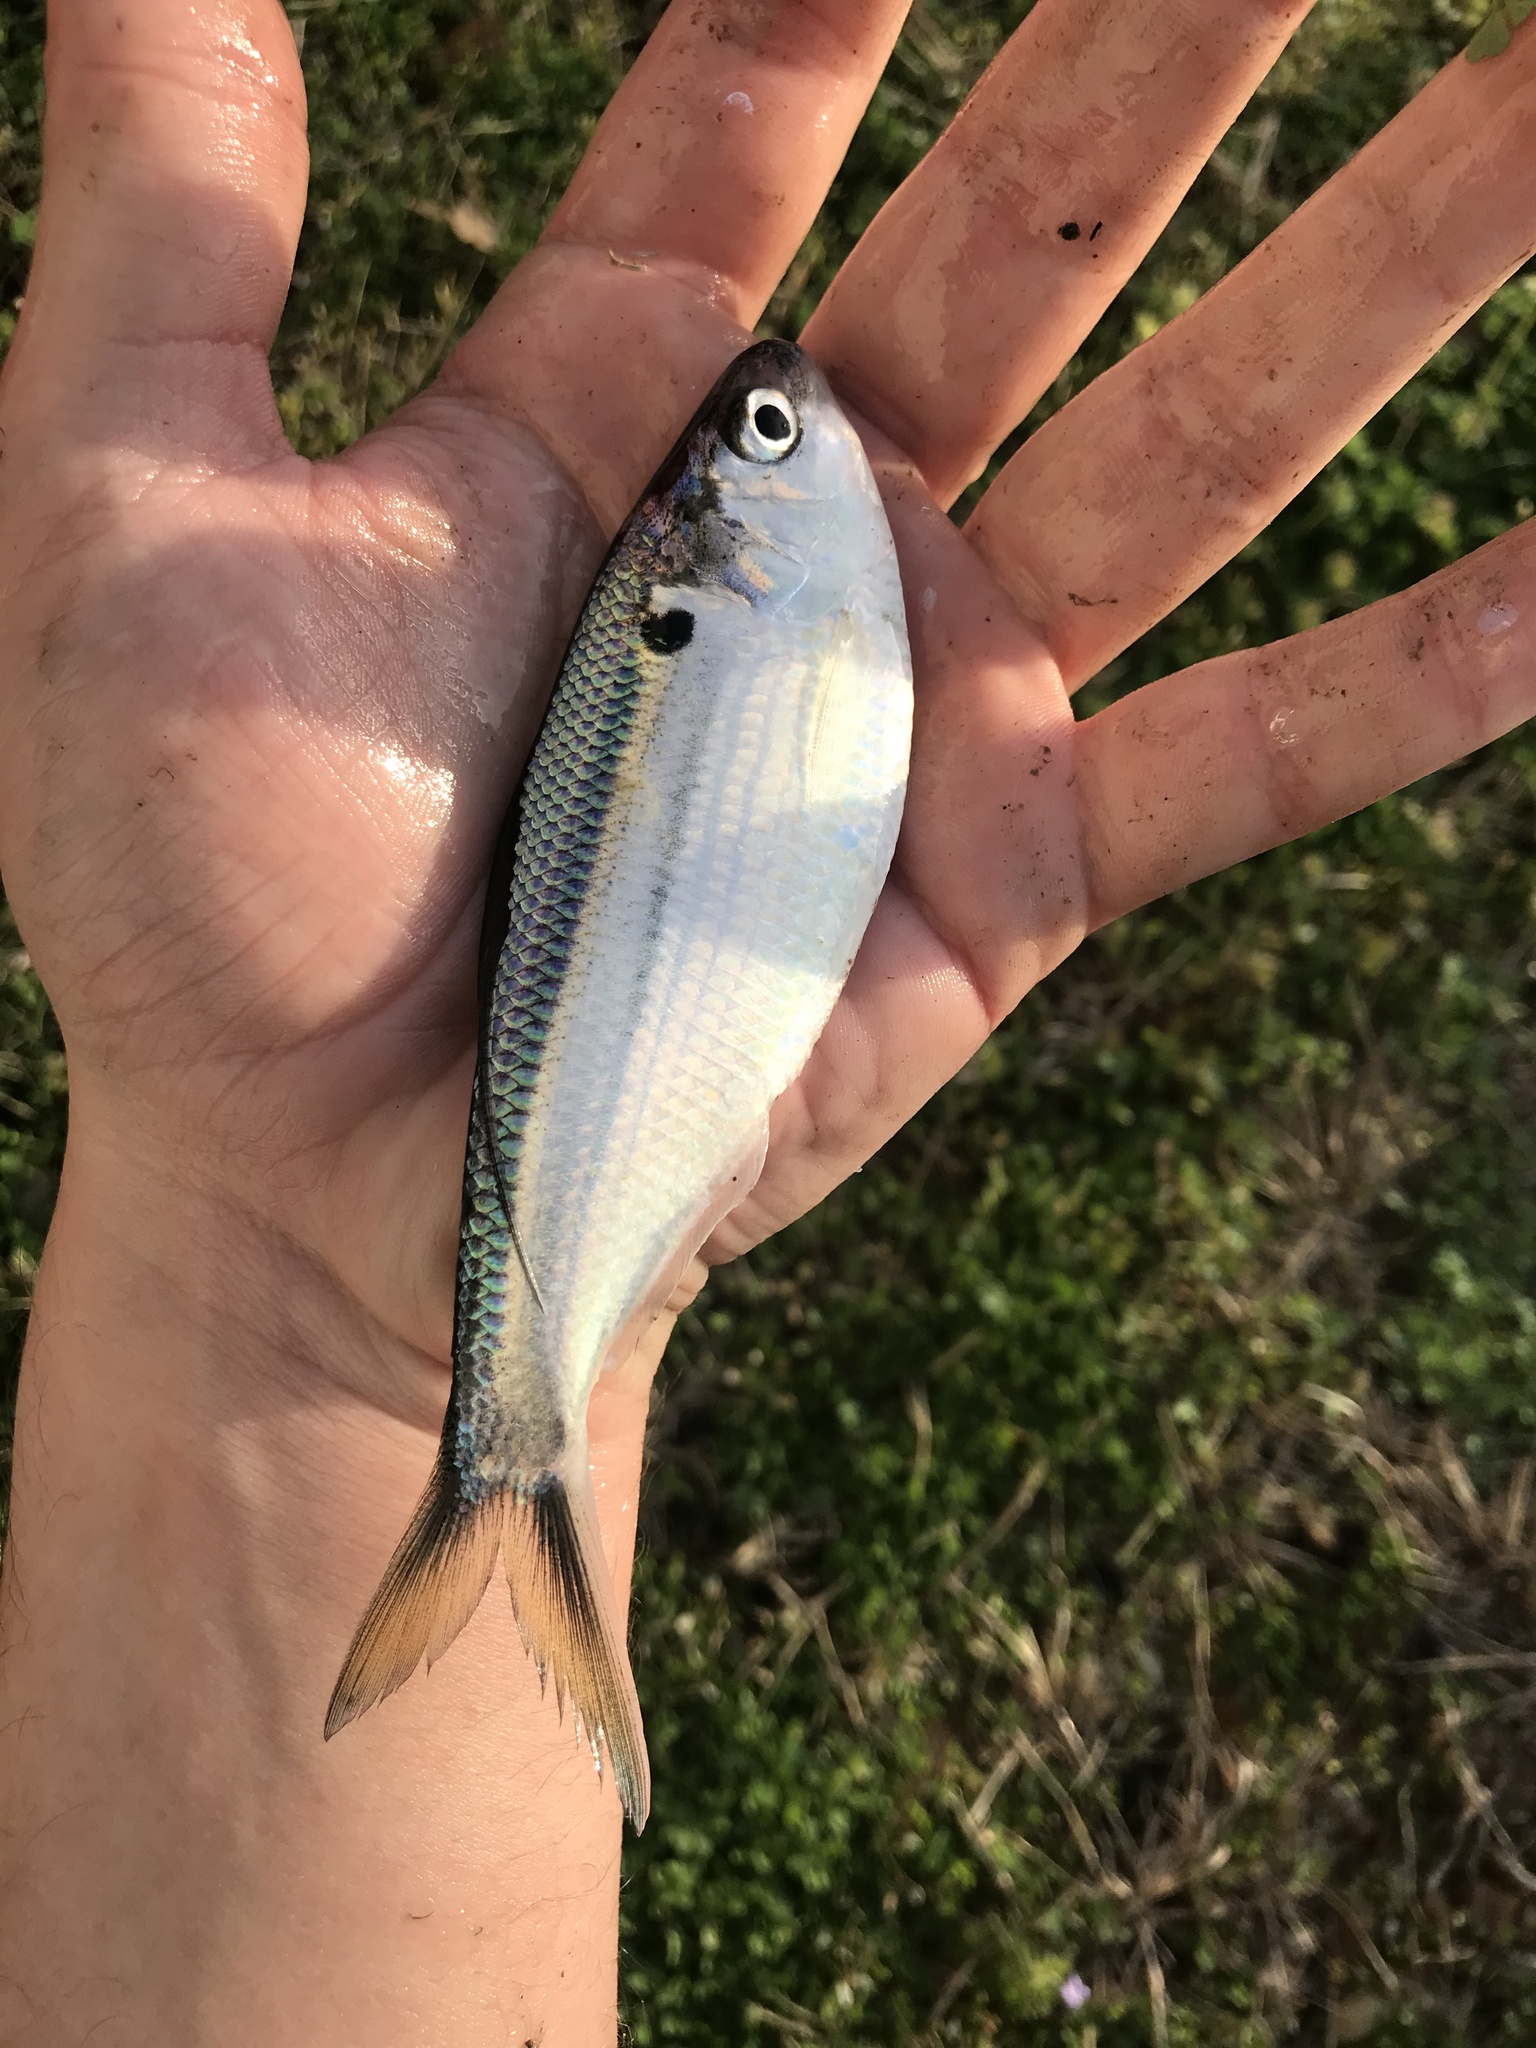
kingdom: Animalia
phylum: Chordata
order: Clupeiformes
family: Clupeidae
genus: Dorosoma
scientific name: Dorosoma petenense
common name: Threadfin shad
